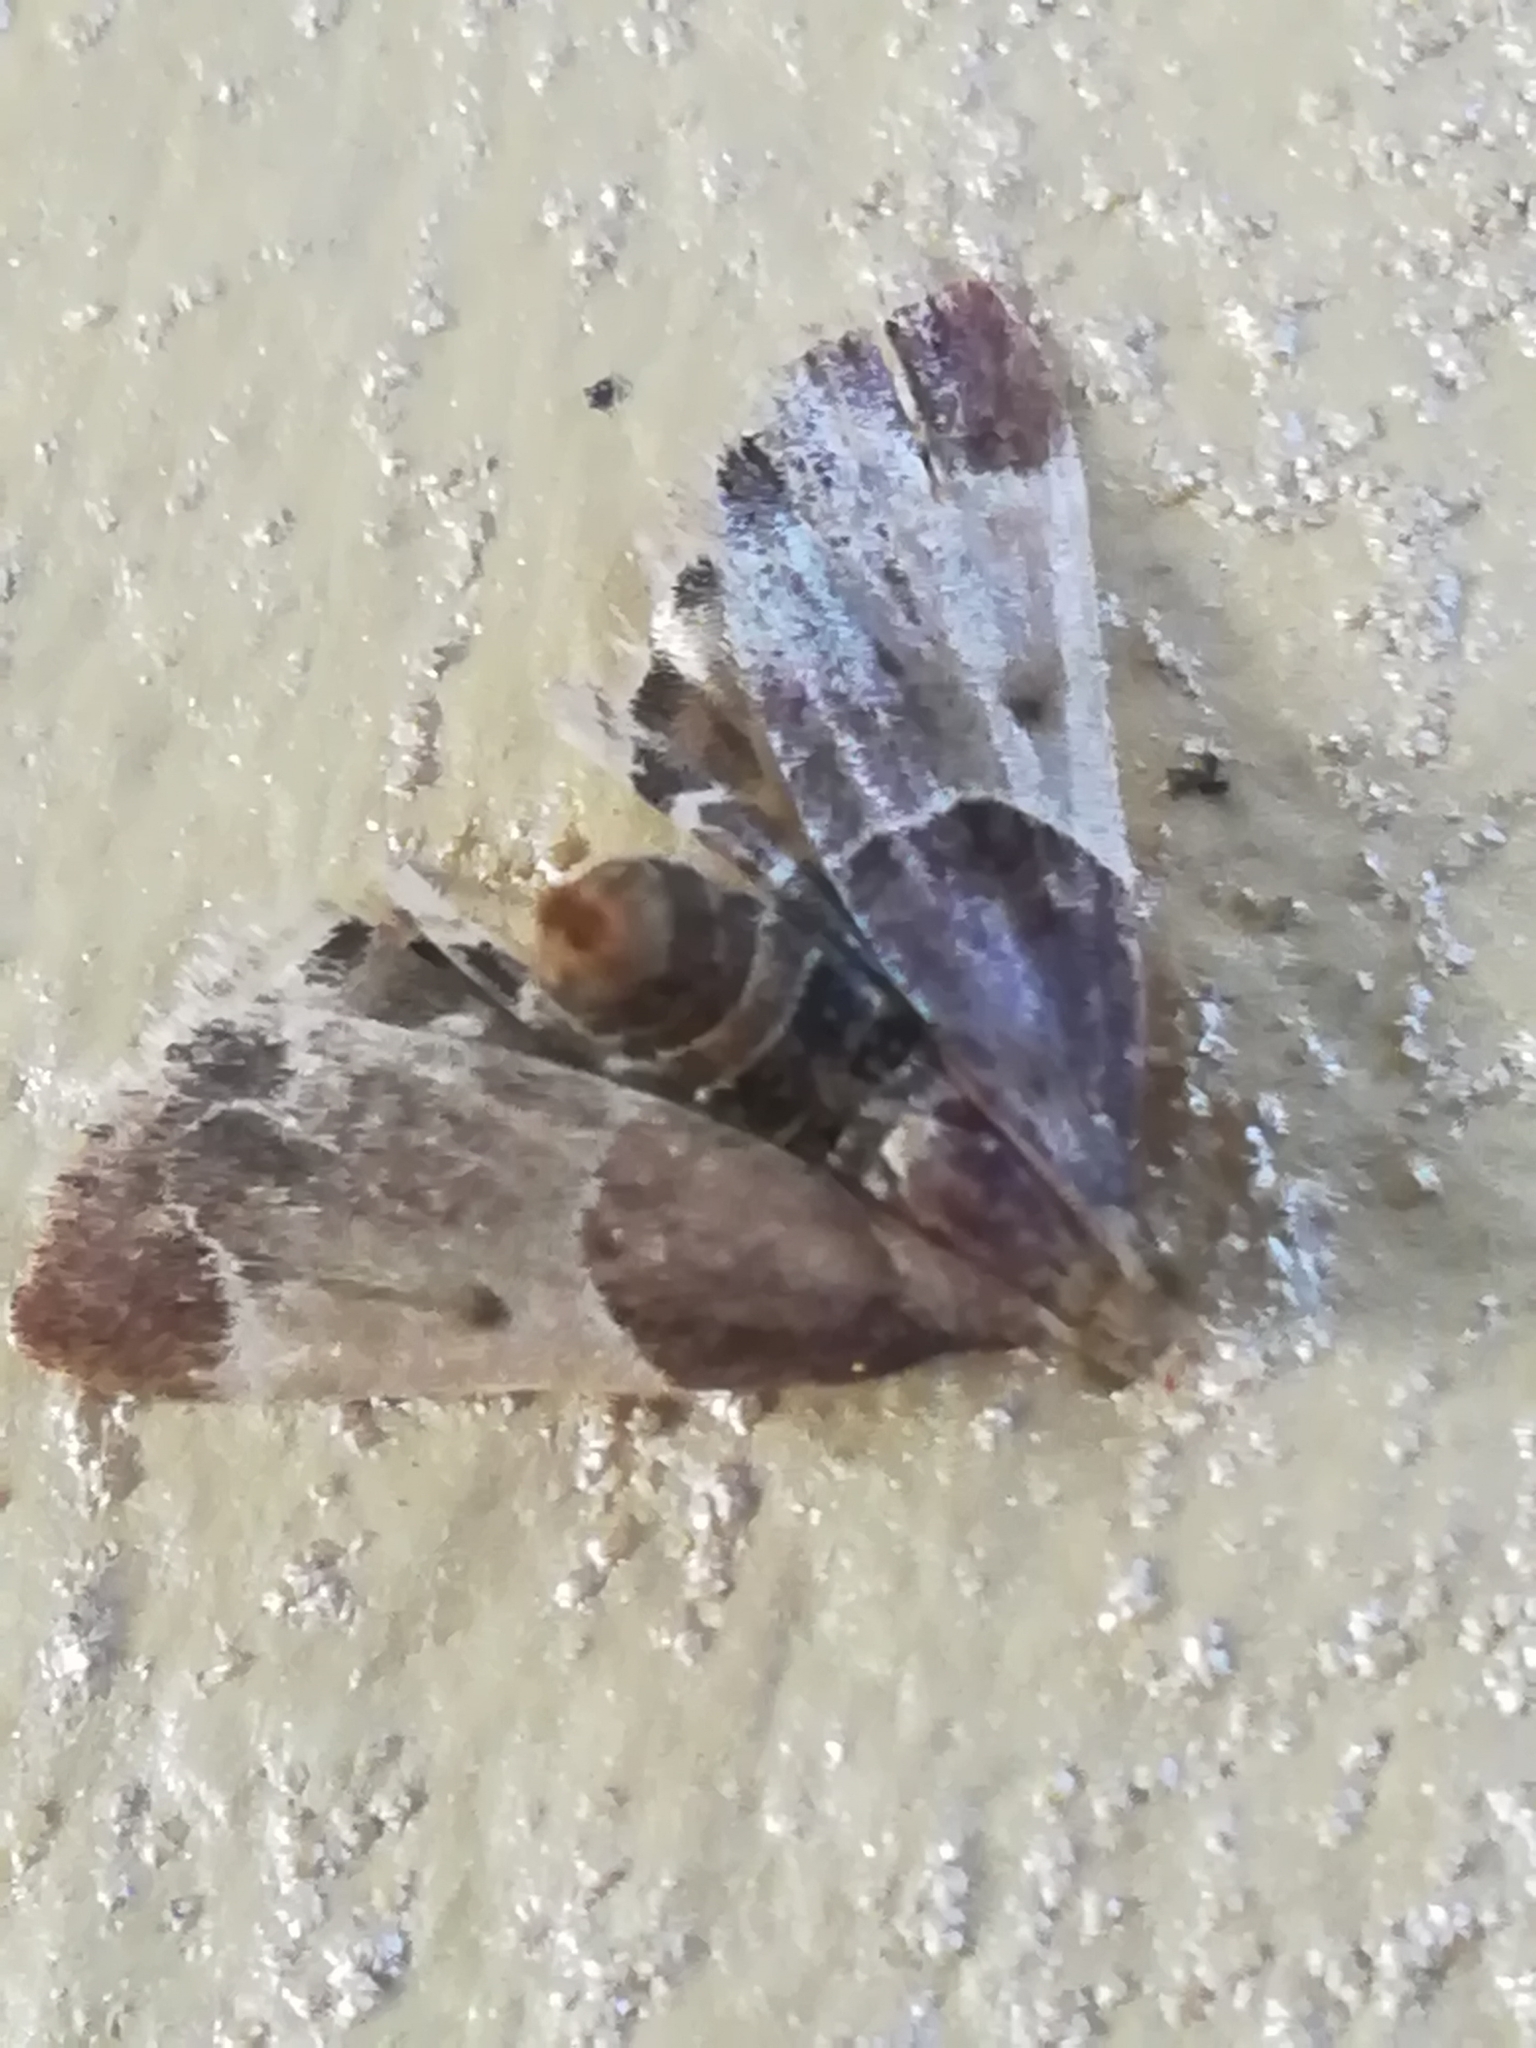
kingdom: Animalia
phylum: Arthropoda
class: Insecta
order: Lepidoptera
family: Pyralidae
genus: Pyralis
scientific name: Pyralis farinalis
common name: Meal moth
